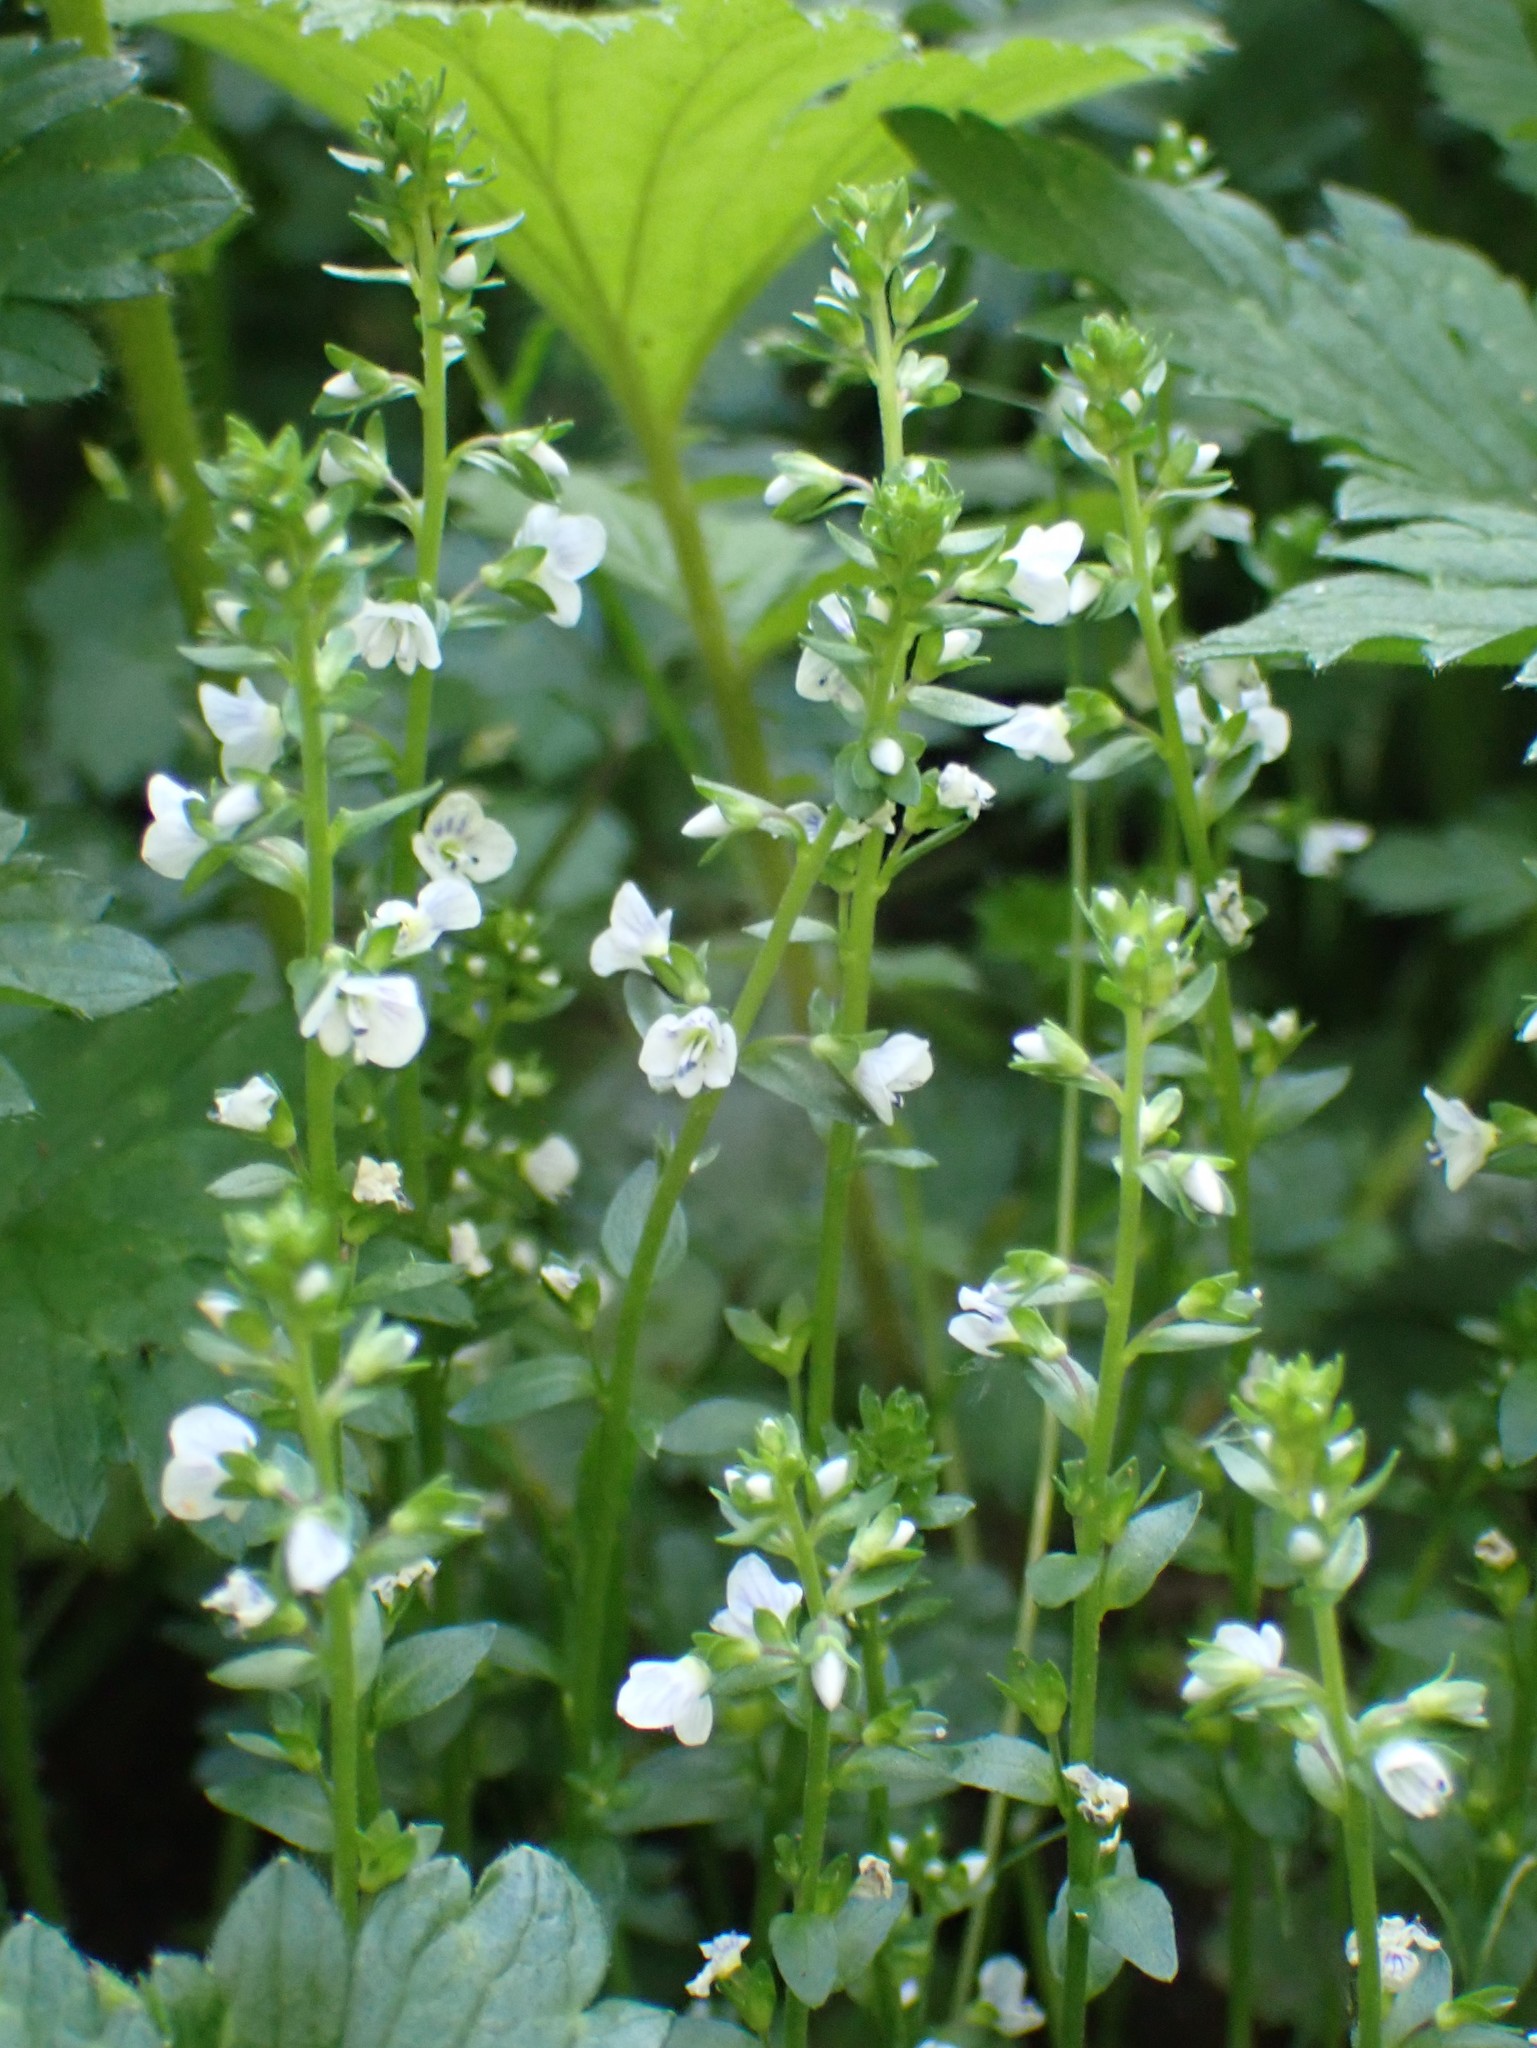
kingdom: Plantae
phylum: Tracheophyta
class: Magnoliopsida
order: Lamiales
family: Plantaginaceae
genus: Veronica
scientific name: Veronica serpyllifolia
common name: Thyme-leaved speedwell
